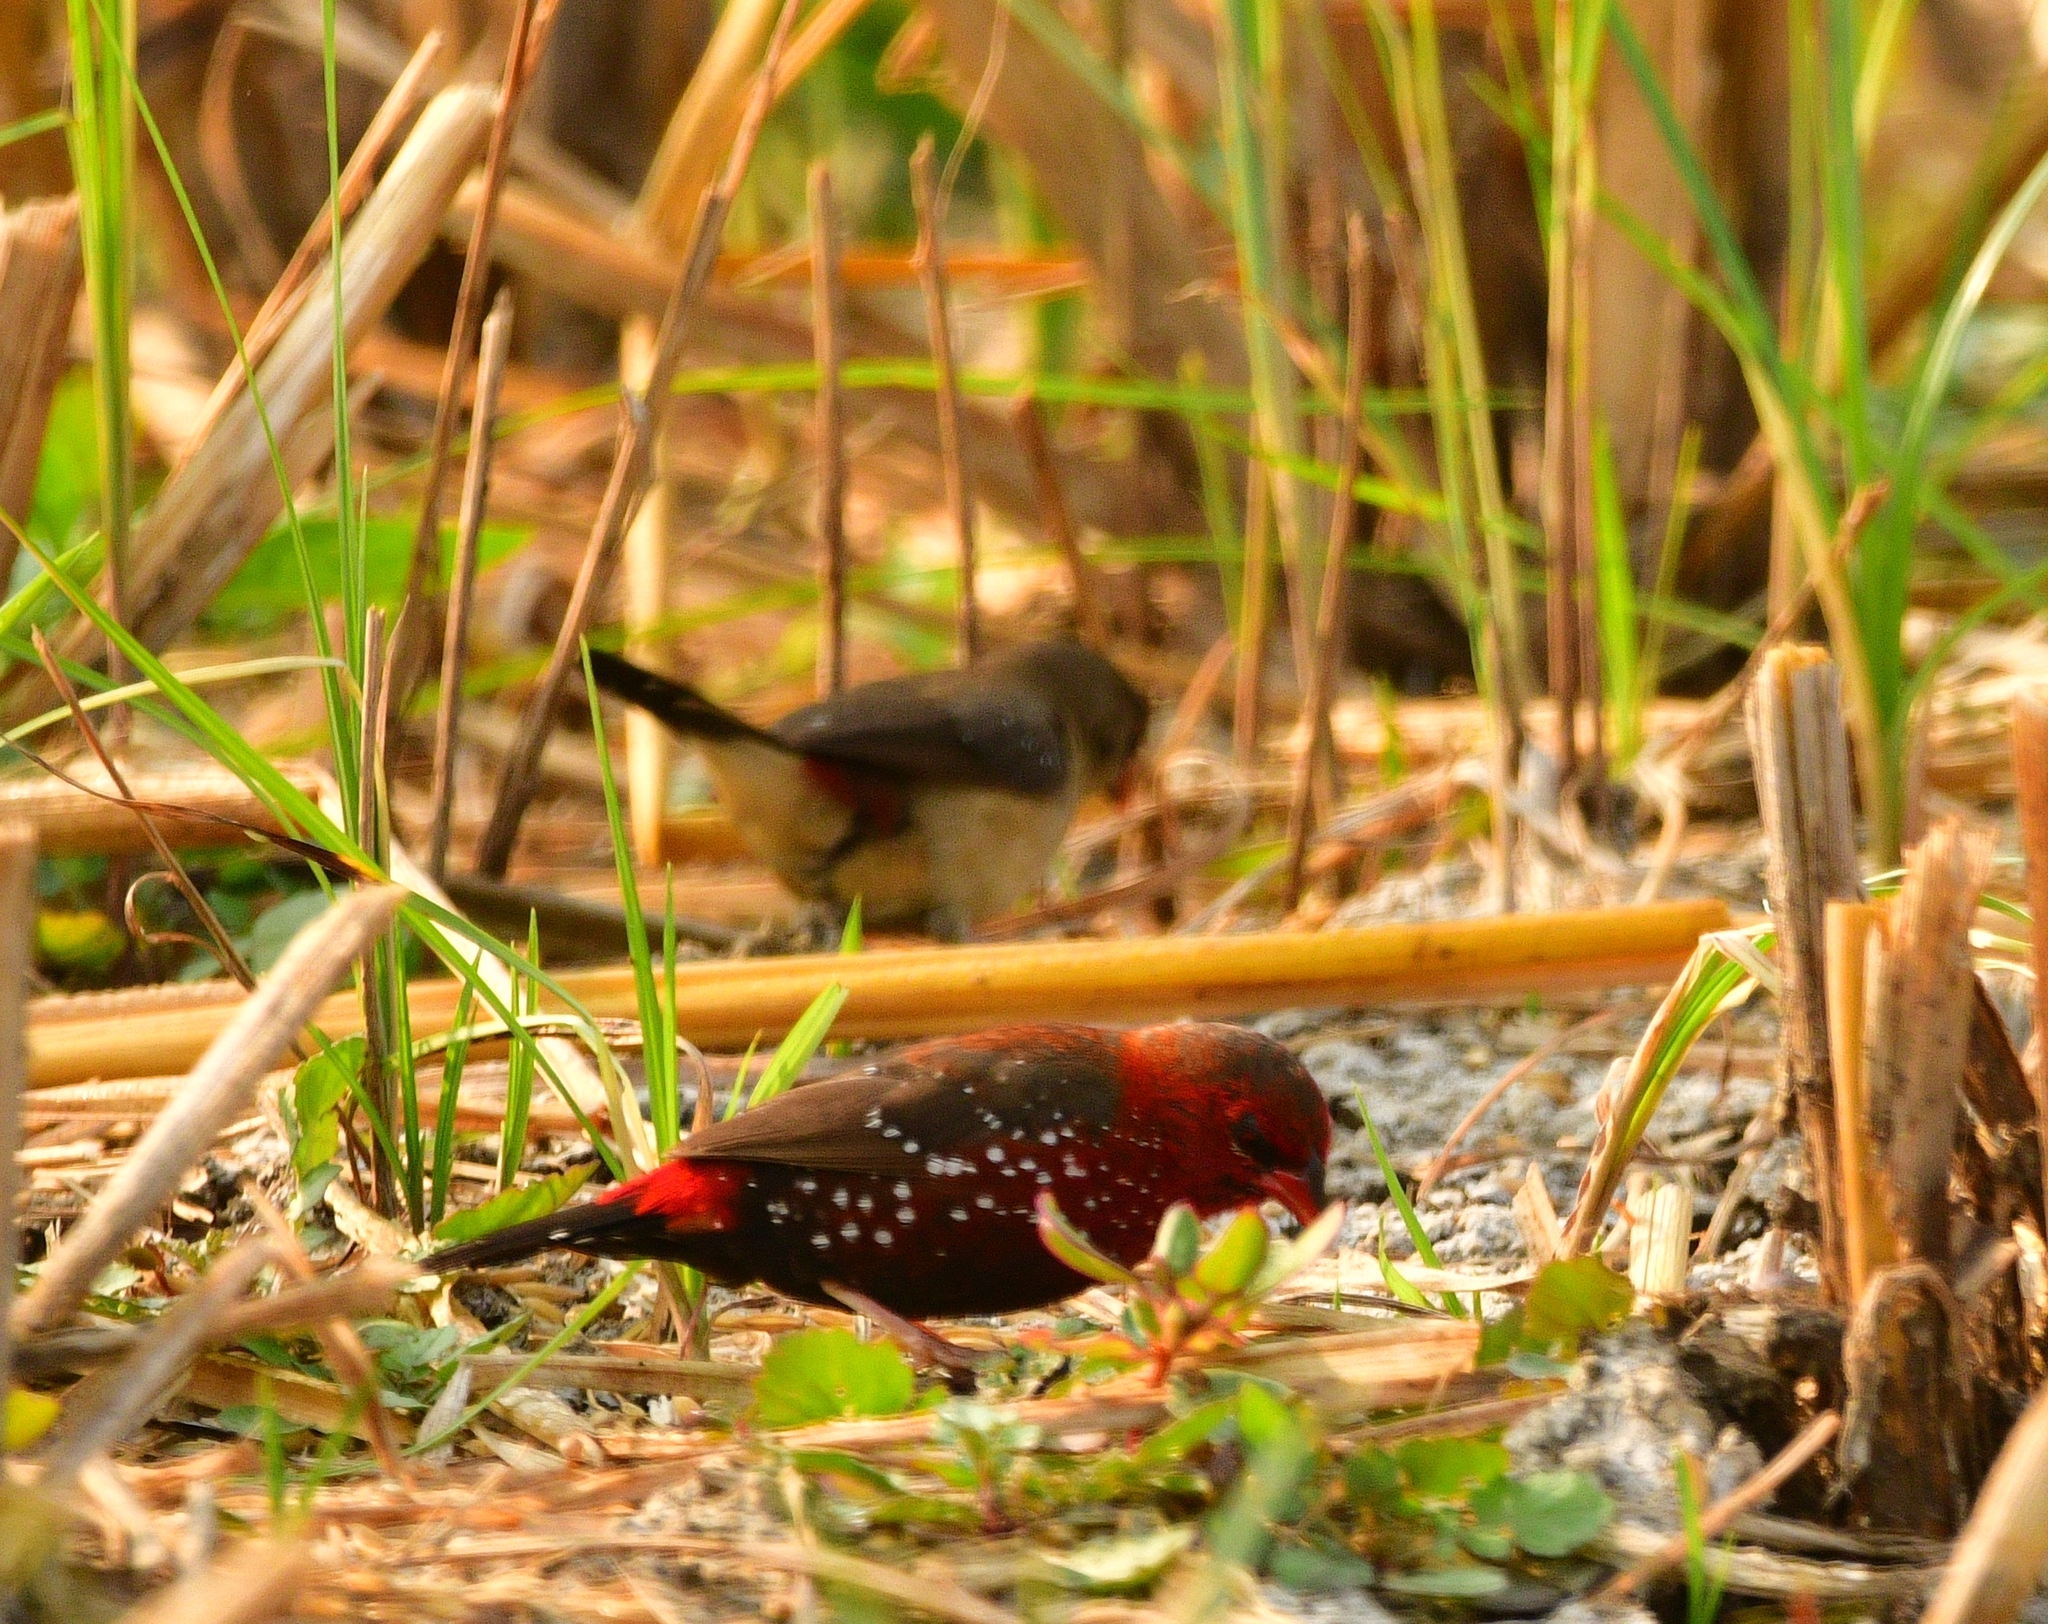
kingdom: Animalia
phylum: Chordata
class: Aves
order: Passeriformes
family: Estrildidae
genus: Amandava
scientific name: Amandava amandava
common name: Red avadavat
